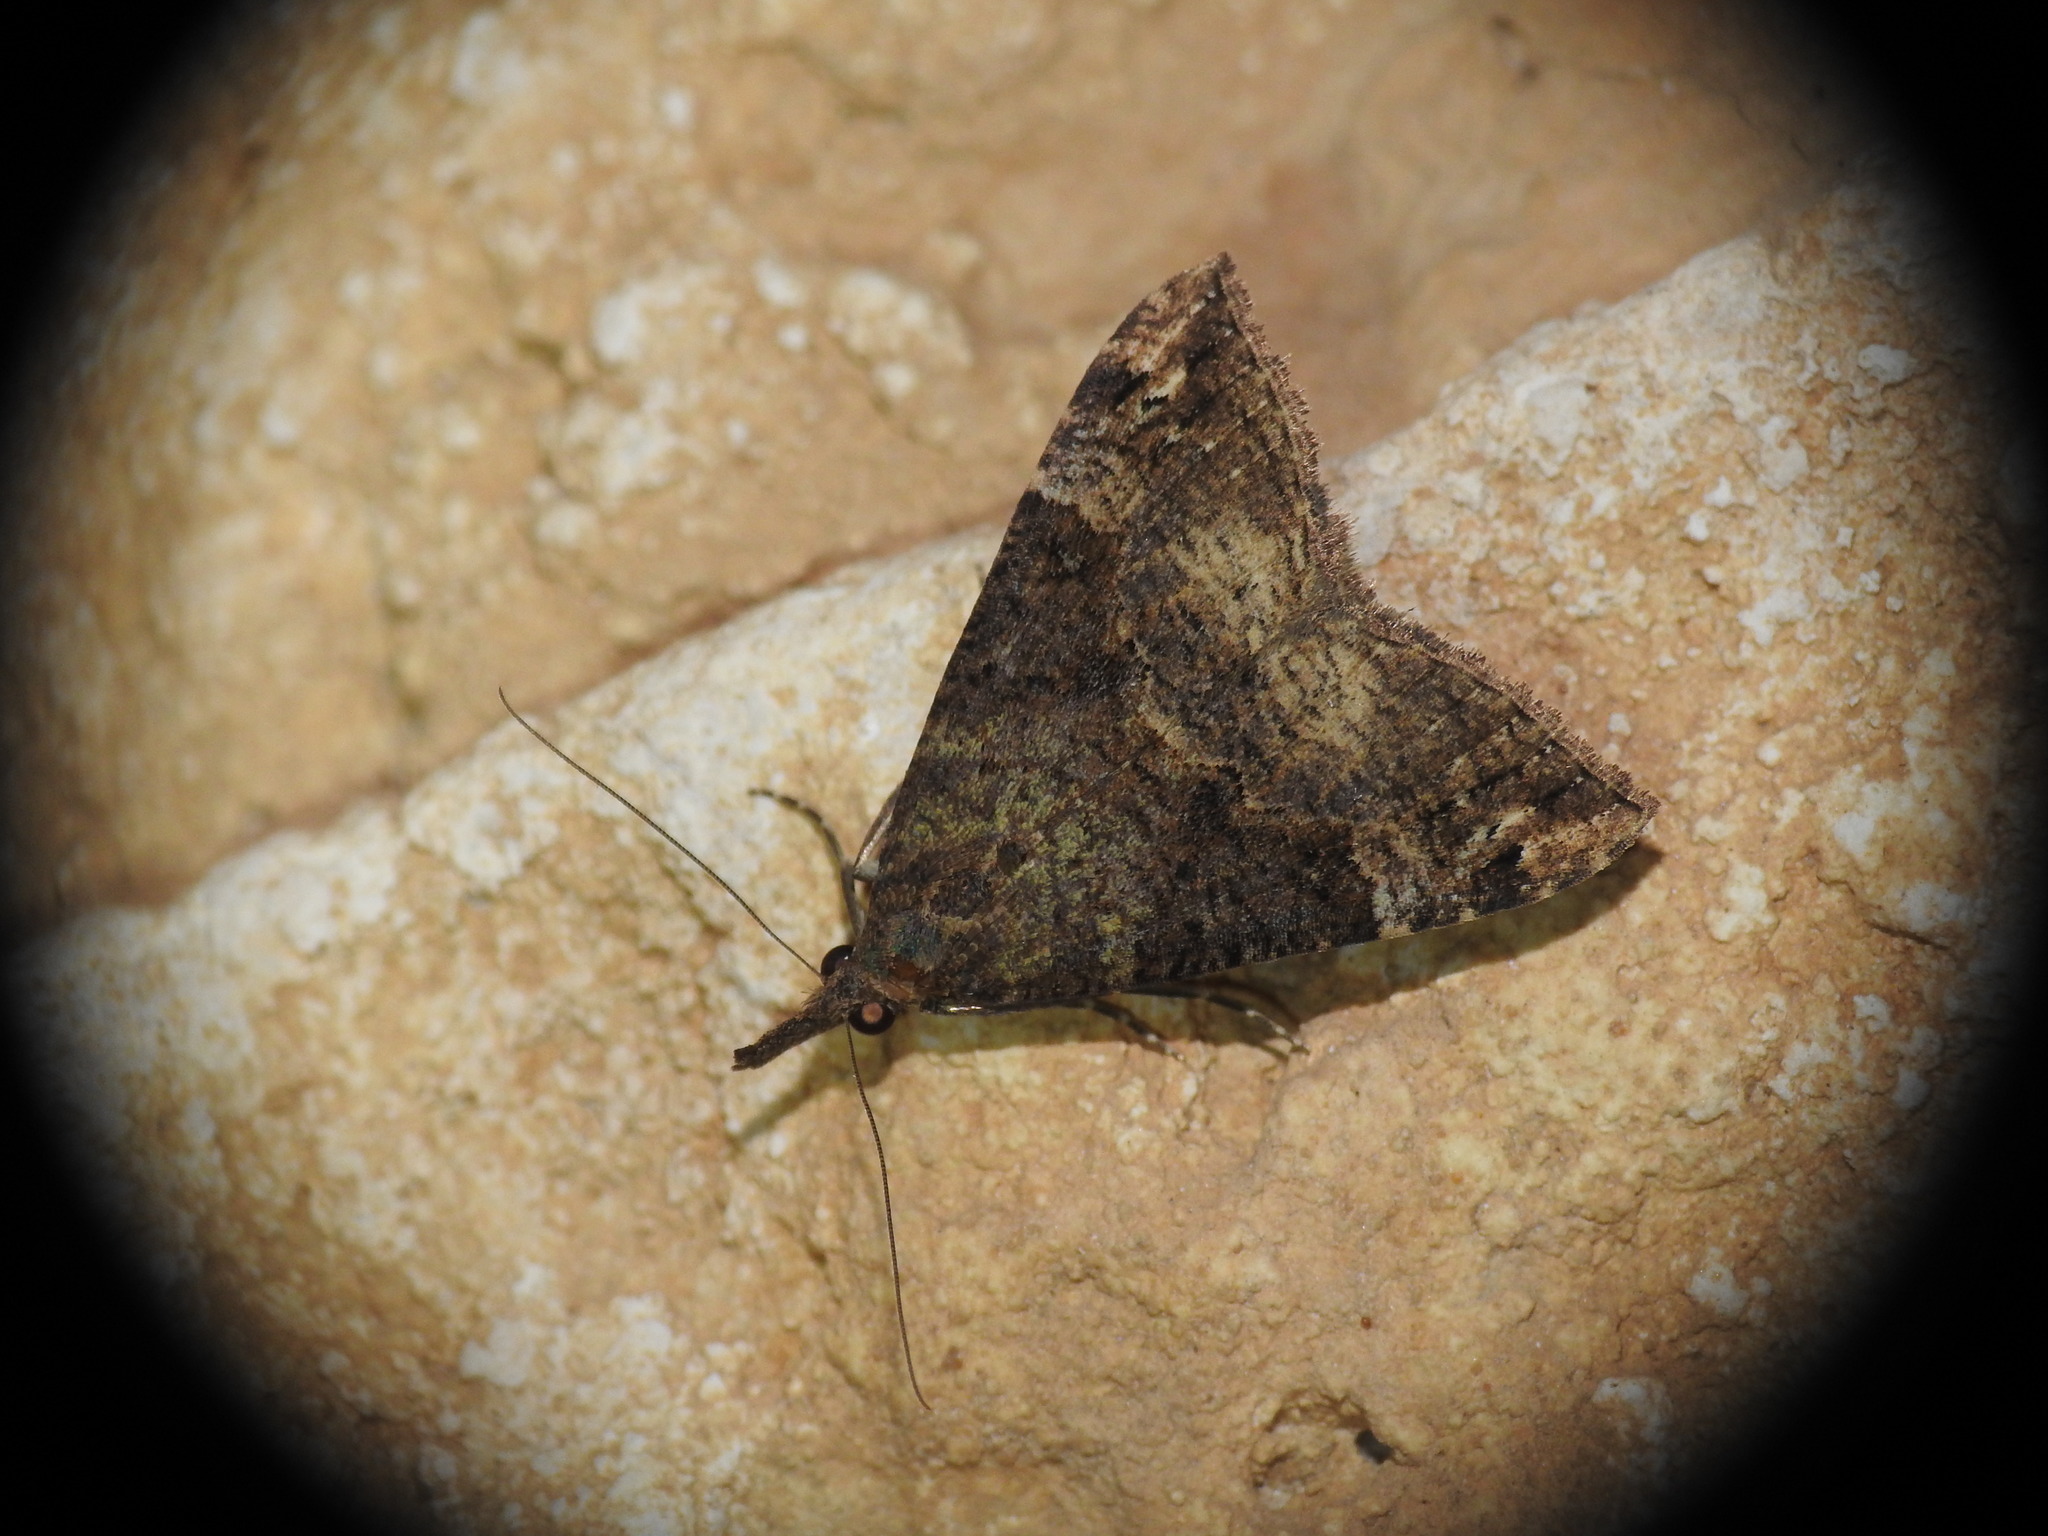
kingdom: Animalia
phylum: Arthropoda
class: Insecta
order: Lepidoptera
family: Erebidae
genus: Hypena
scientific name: Hypena obsitalis
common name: Bloxworth snout
